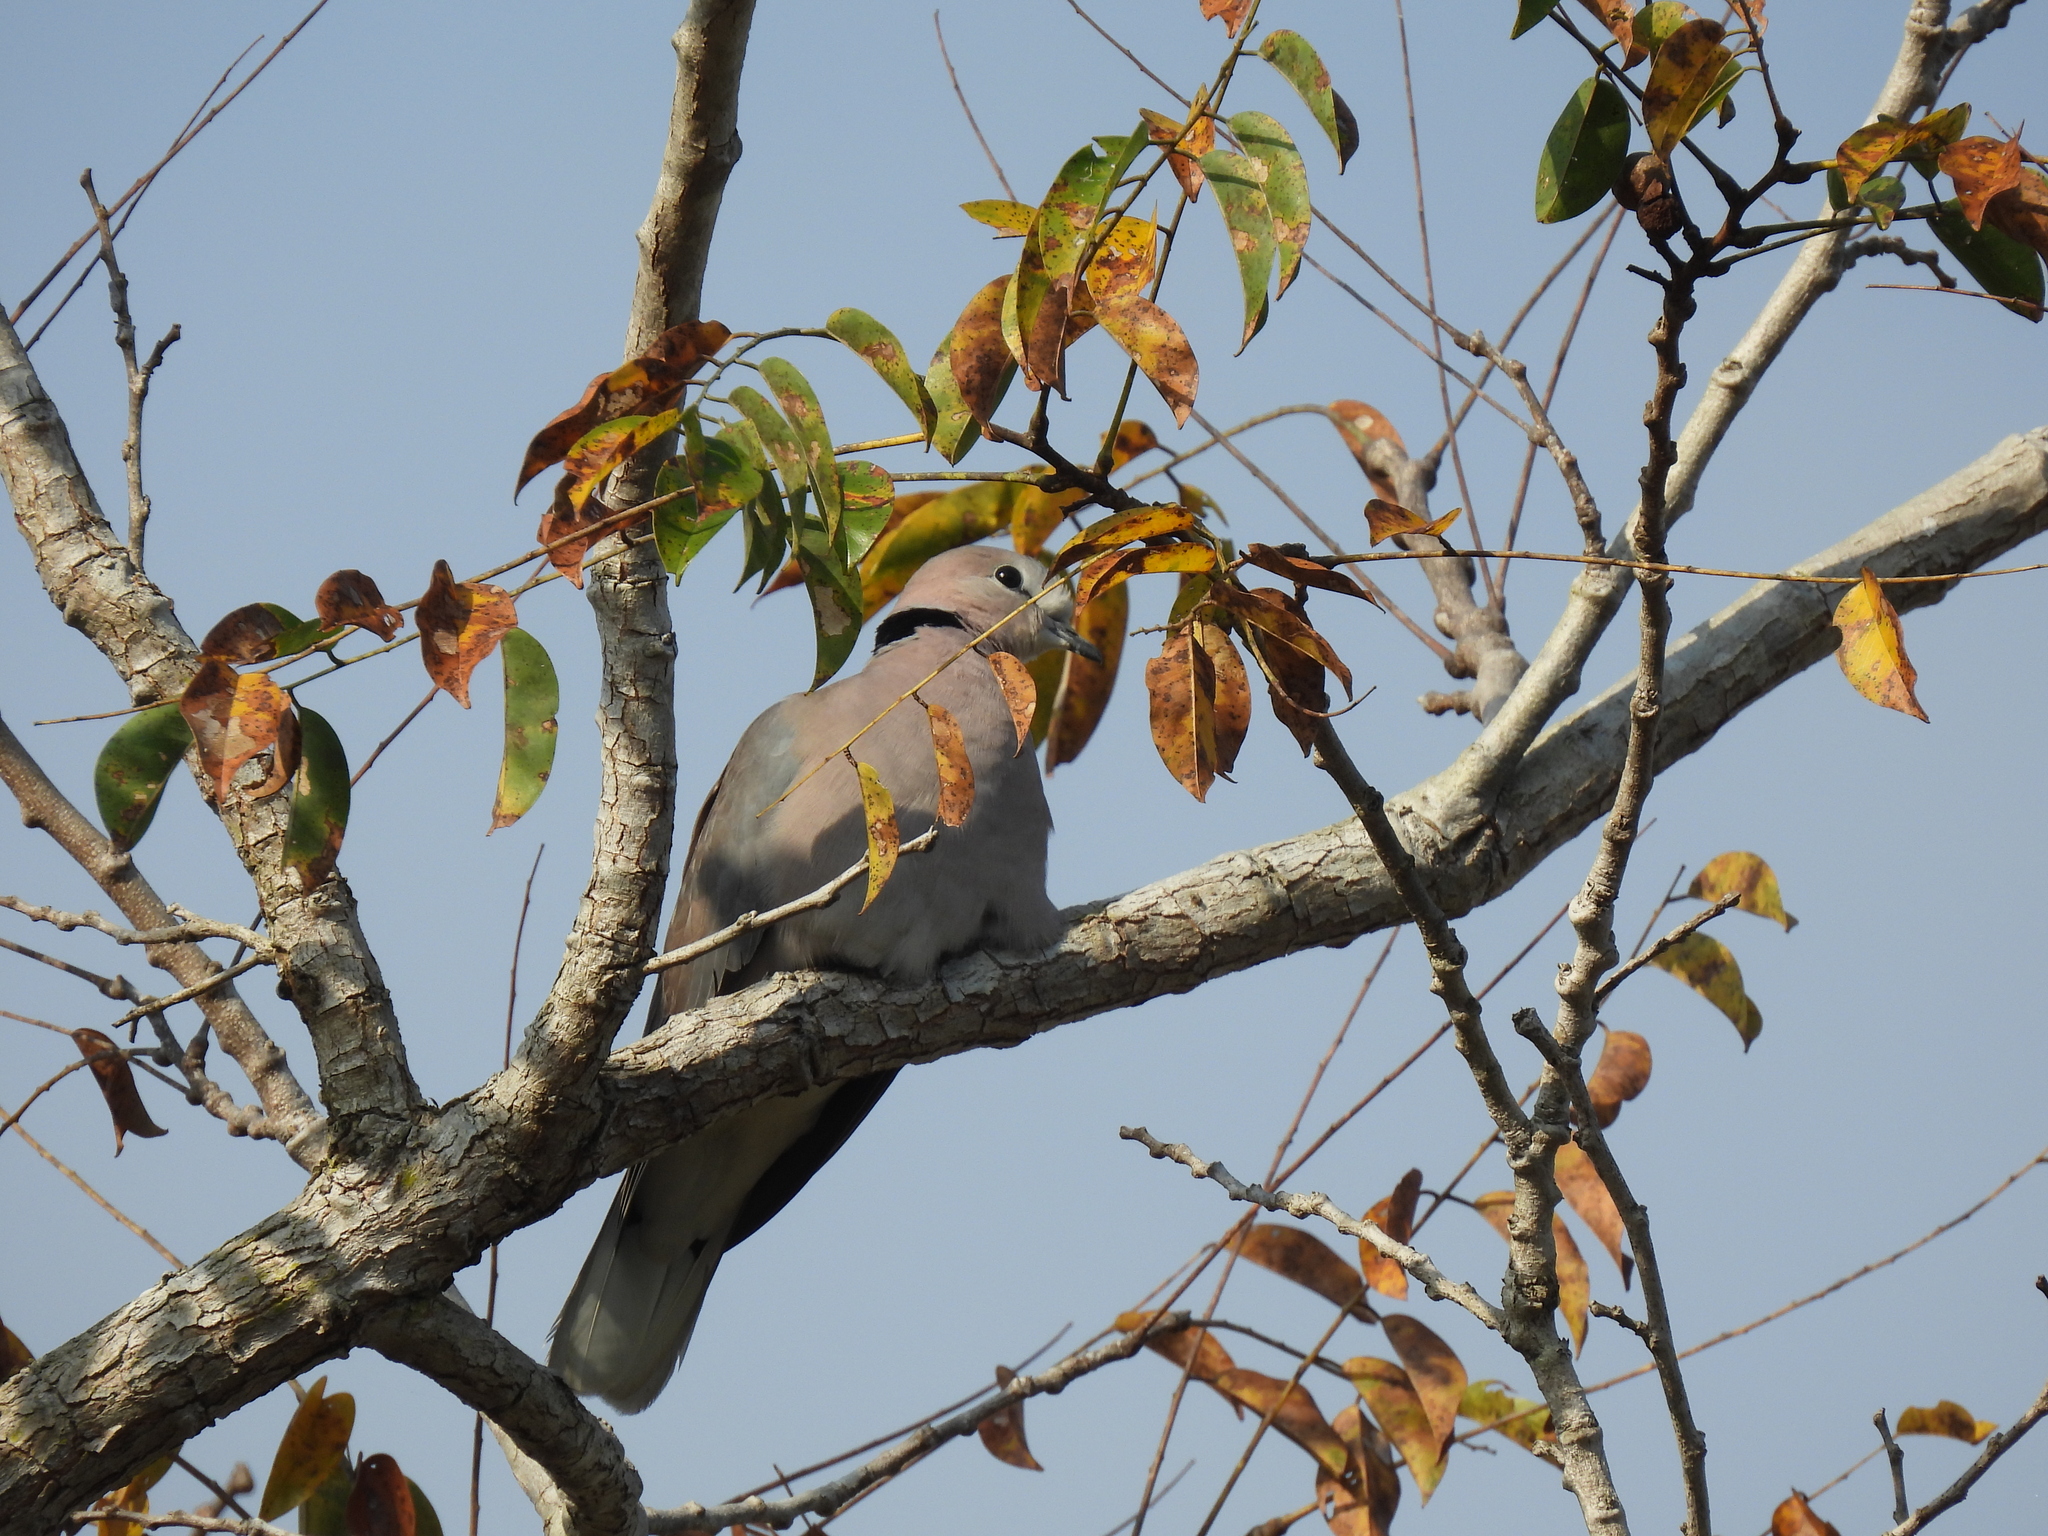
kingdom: Animalia
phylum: Chordata
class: Aves
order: Columbiformes
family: Columbidae
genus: Streptopelia
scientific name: Streptopelia capicola
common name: Ring-necked dove
